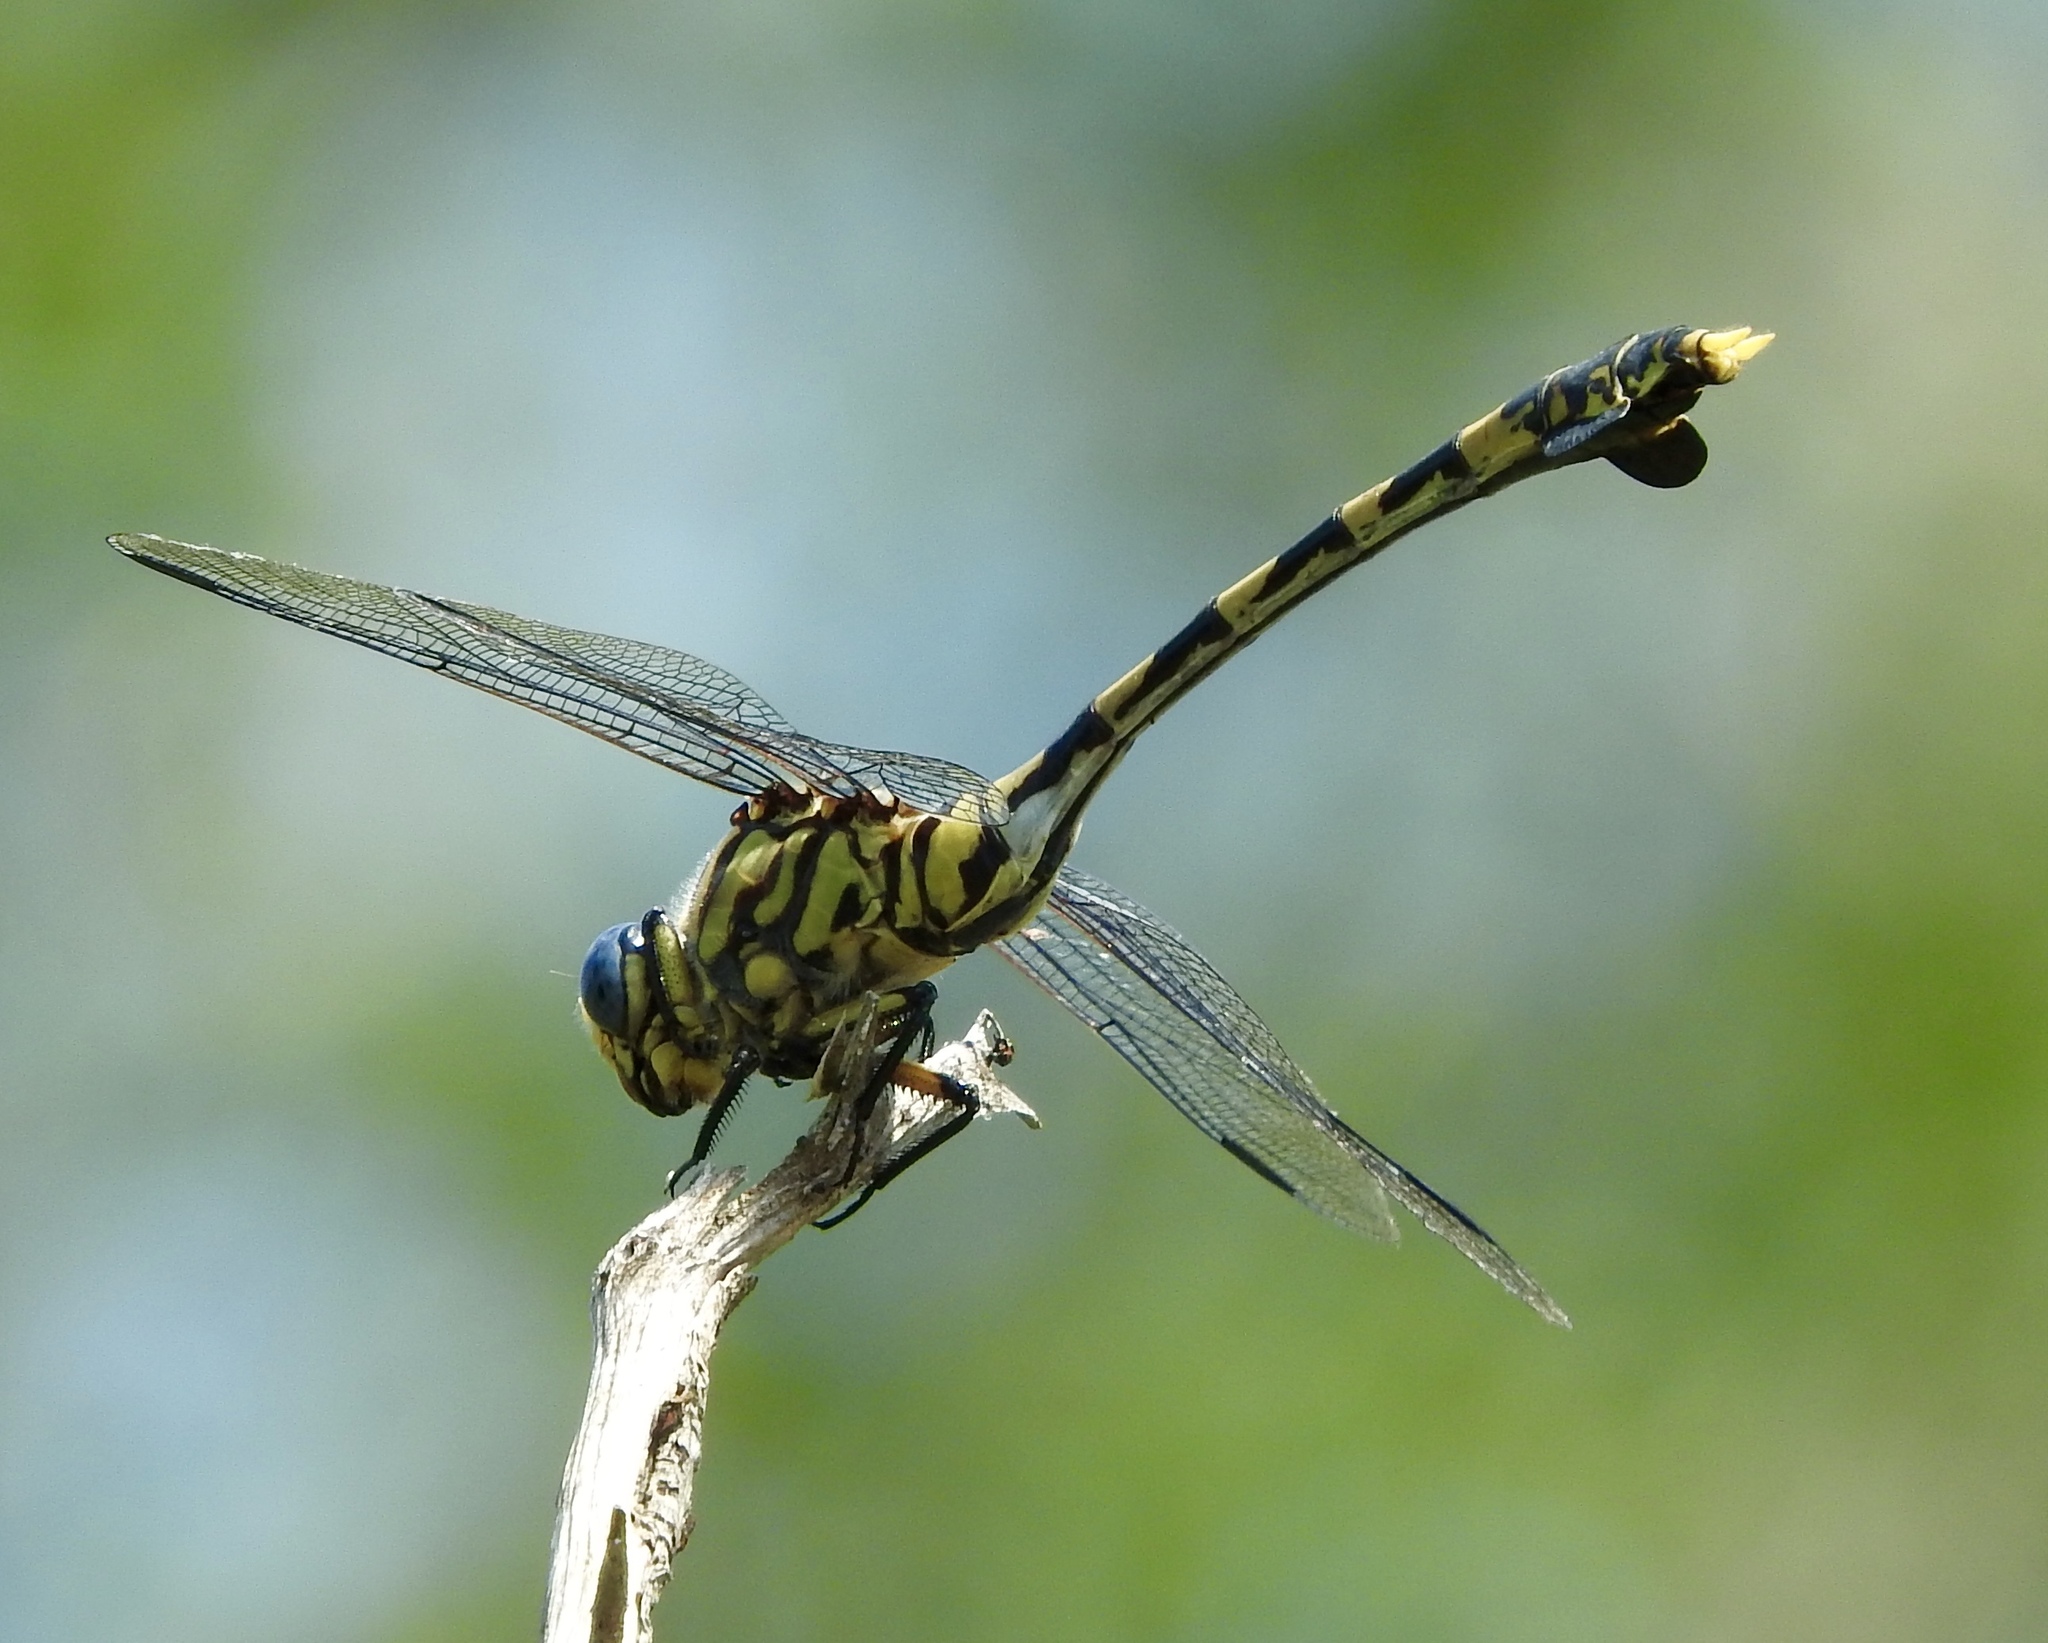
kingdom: Animalia
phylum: Arthropoda
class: Insecta
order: Odonata
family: Gomphidae
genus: Ictinogomphus
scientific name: Ictinogomphus ferox
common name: Common tiger
